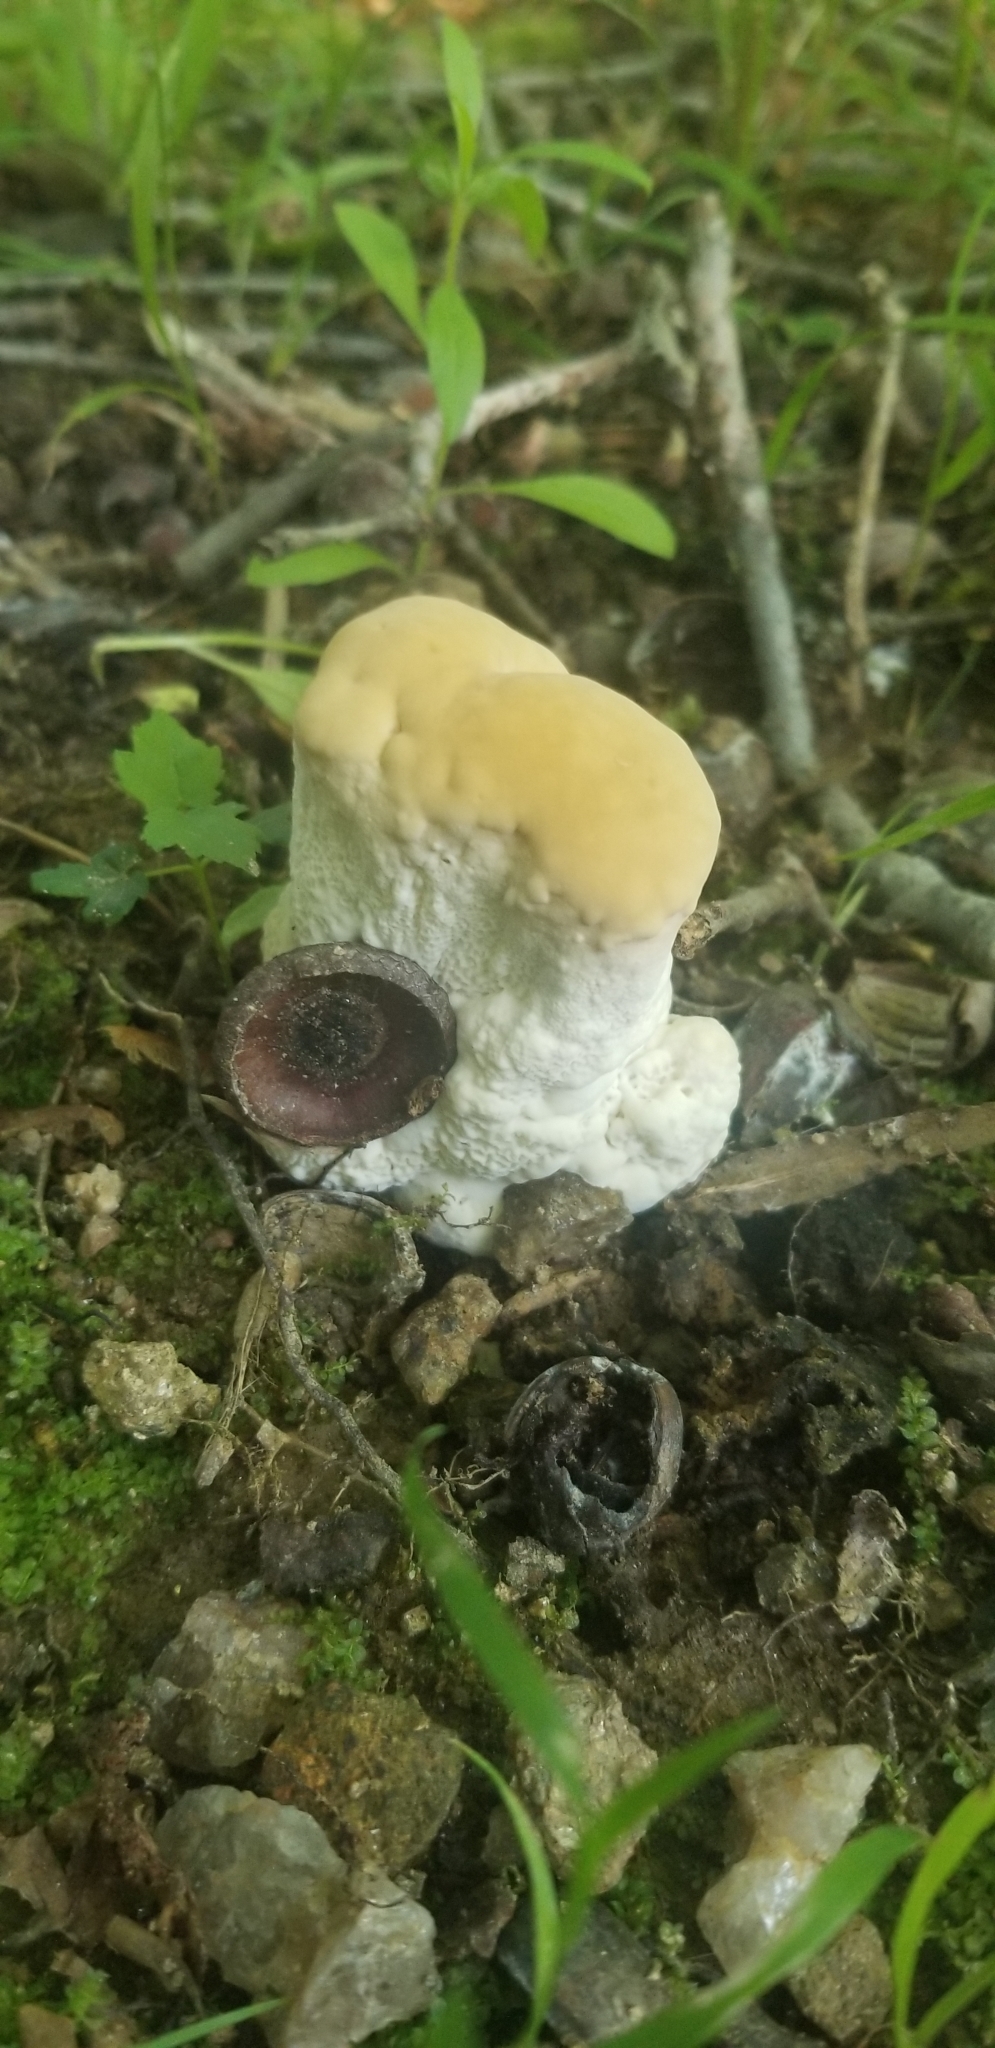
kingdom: Fungi
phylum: Basidiomycota
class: Agaricomycetes
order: Russulales
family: Bondarzewiaceae
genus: Bondarzewia
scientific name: Bondarzewia berkeleyi
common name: Berkeley's polypore
